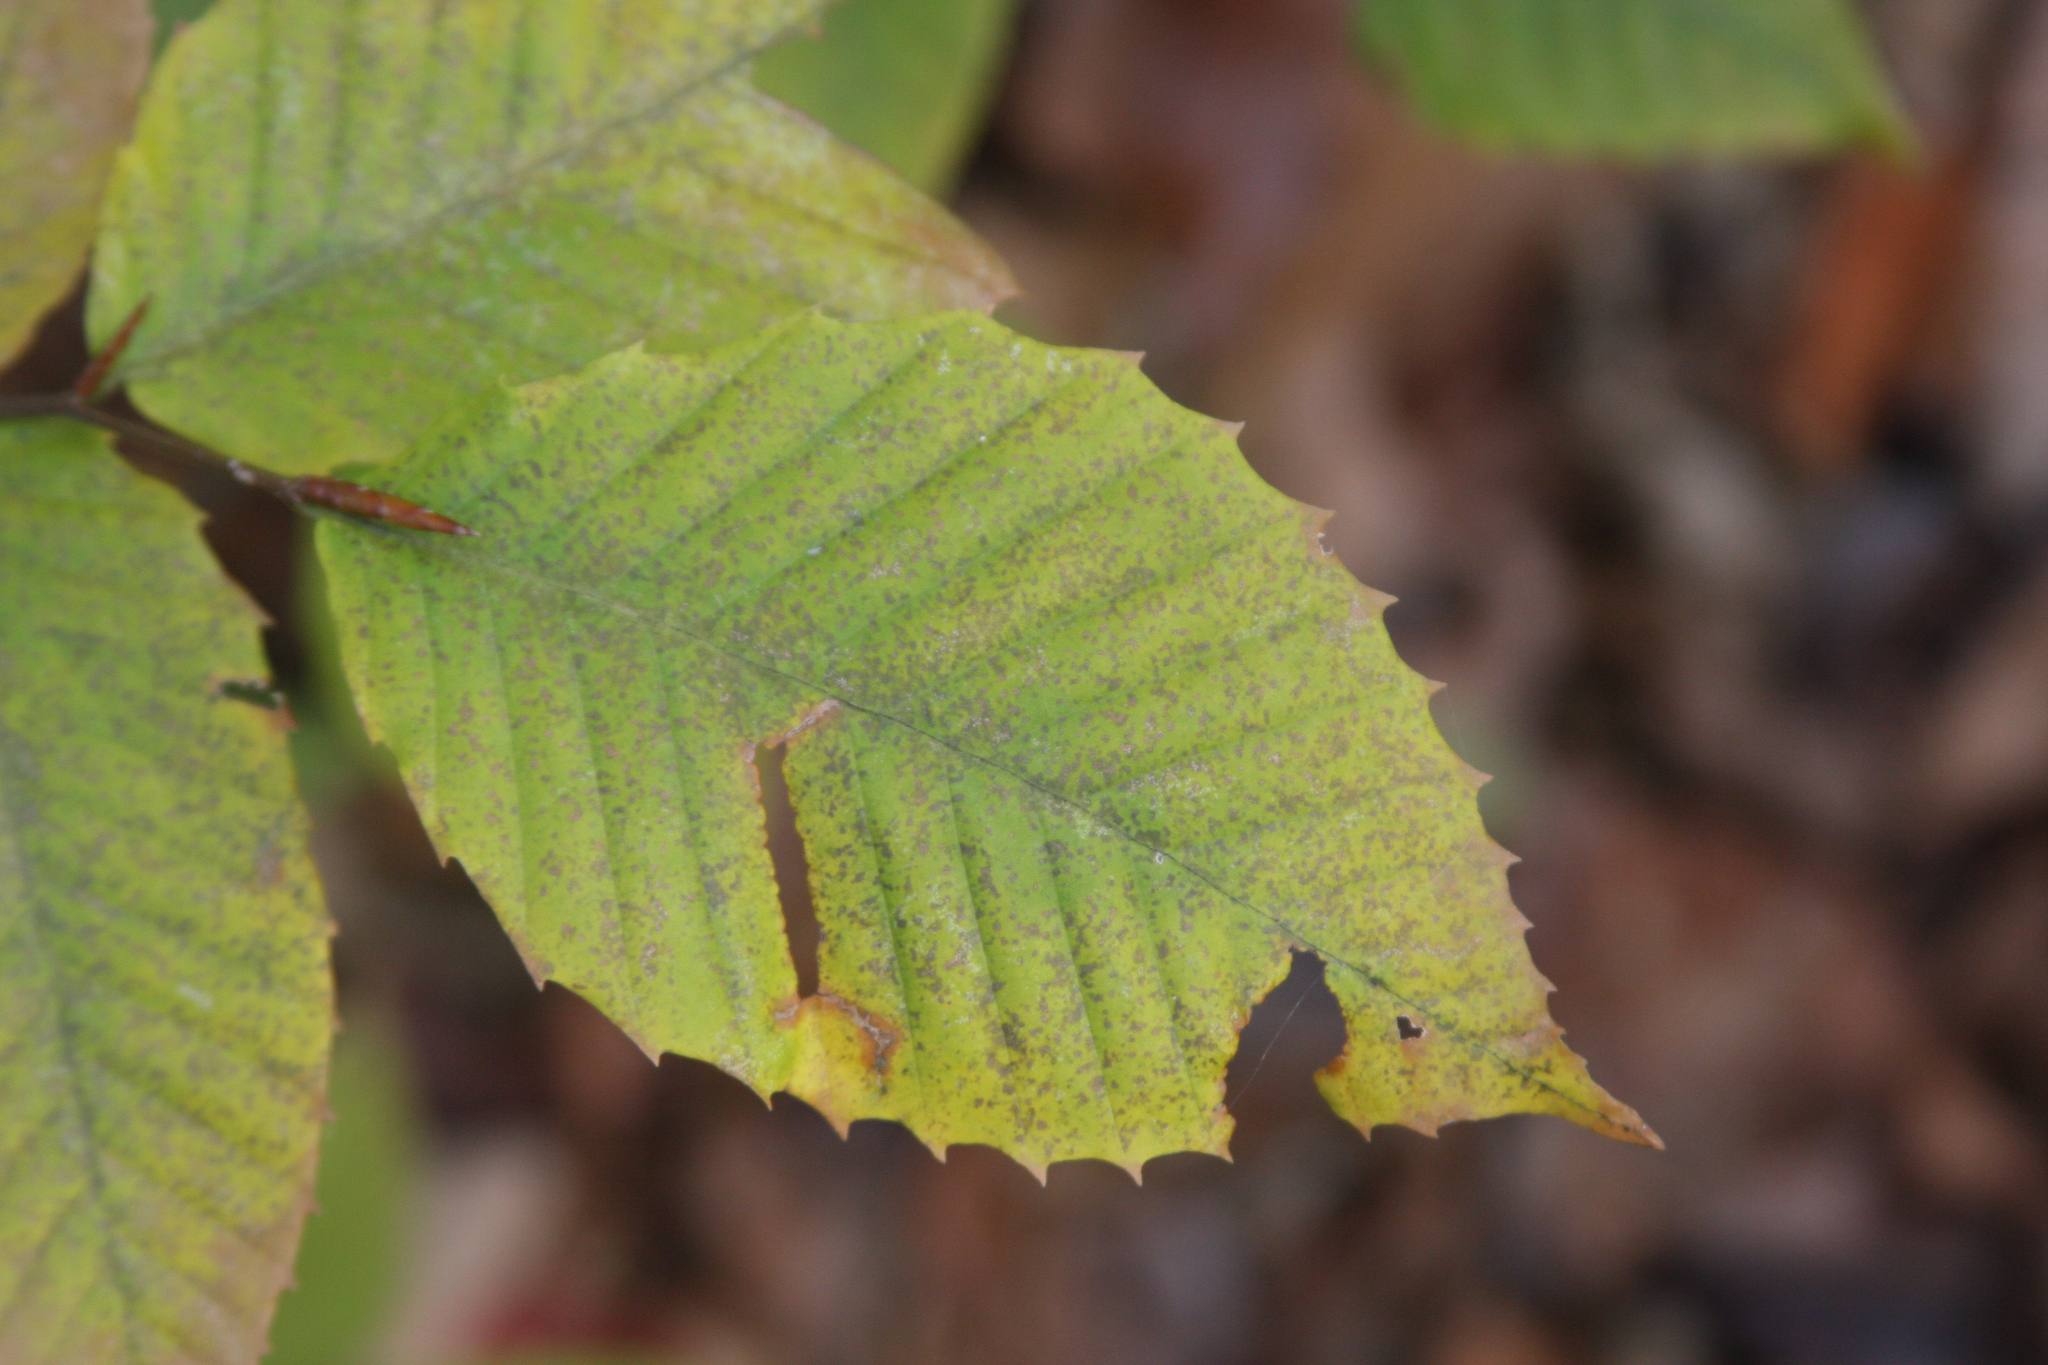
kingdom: Plantae
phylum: Tracheophyta
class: Magnoliopsida
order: Fagales
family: Fagaceae
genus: Fagus
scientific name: Fagus grandifolia
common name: American beech
